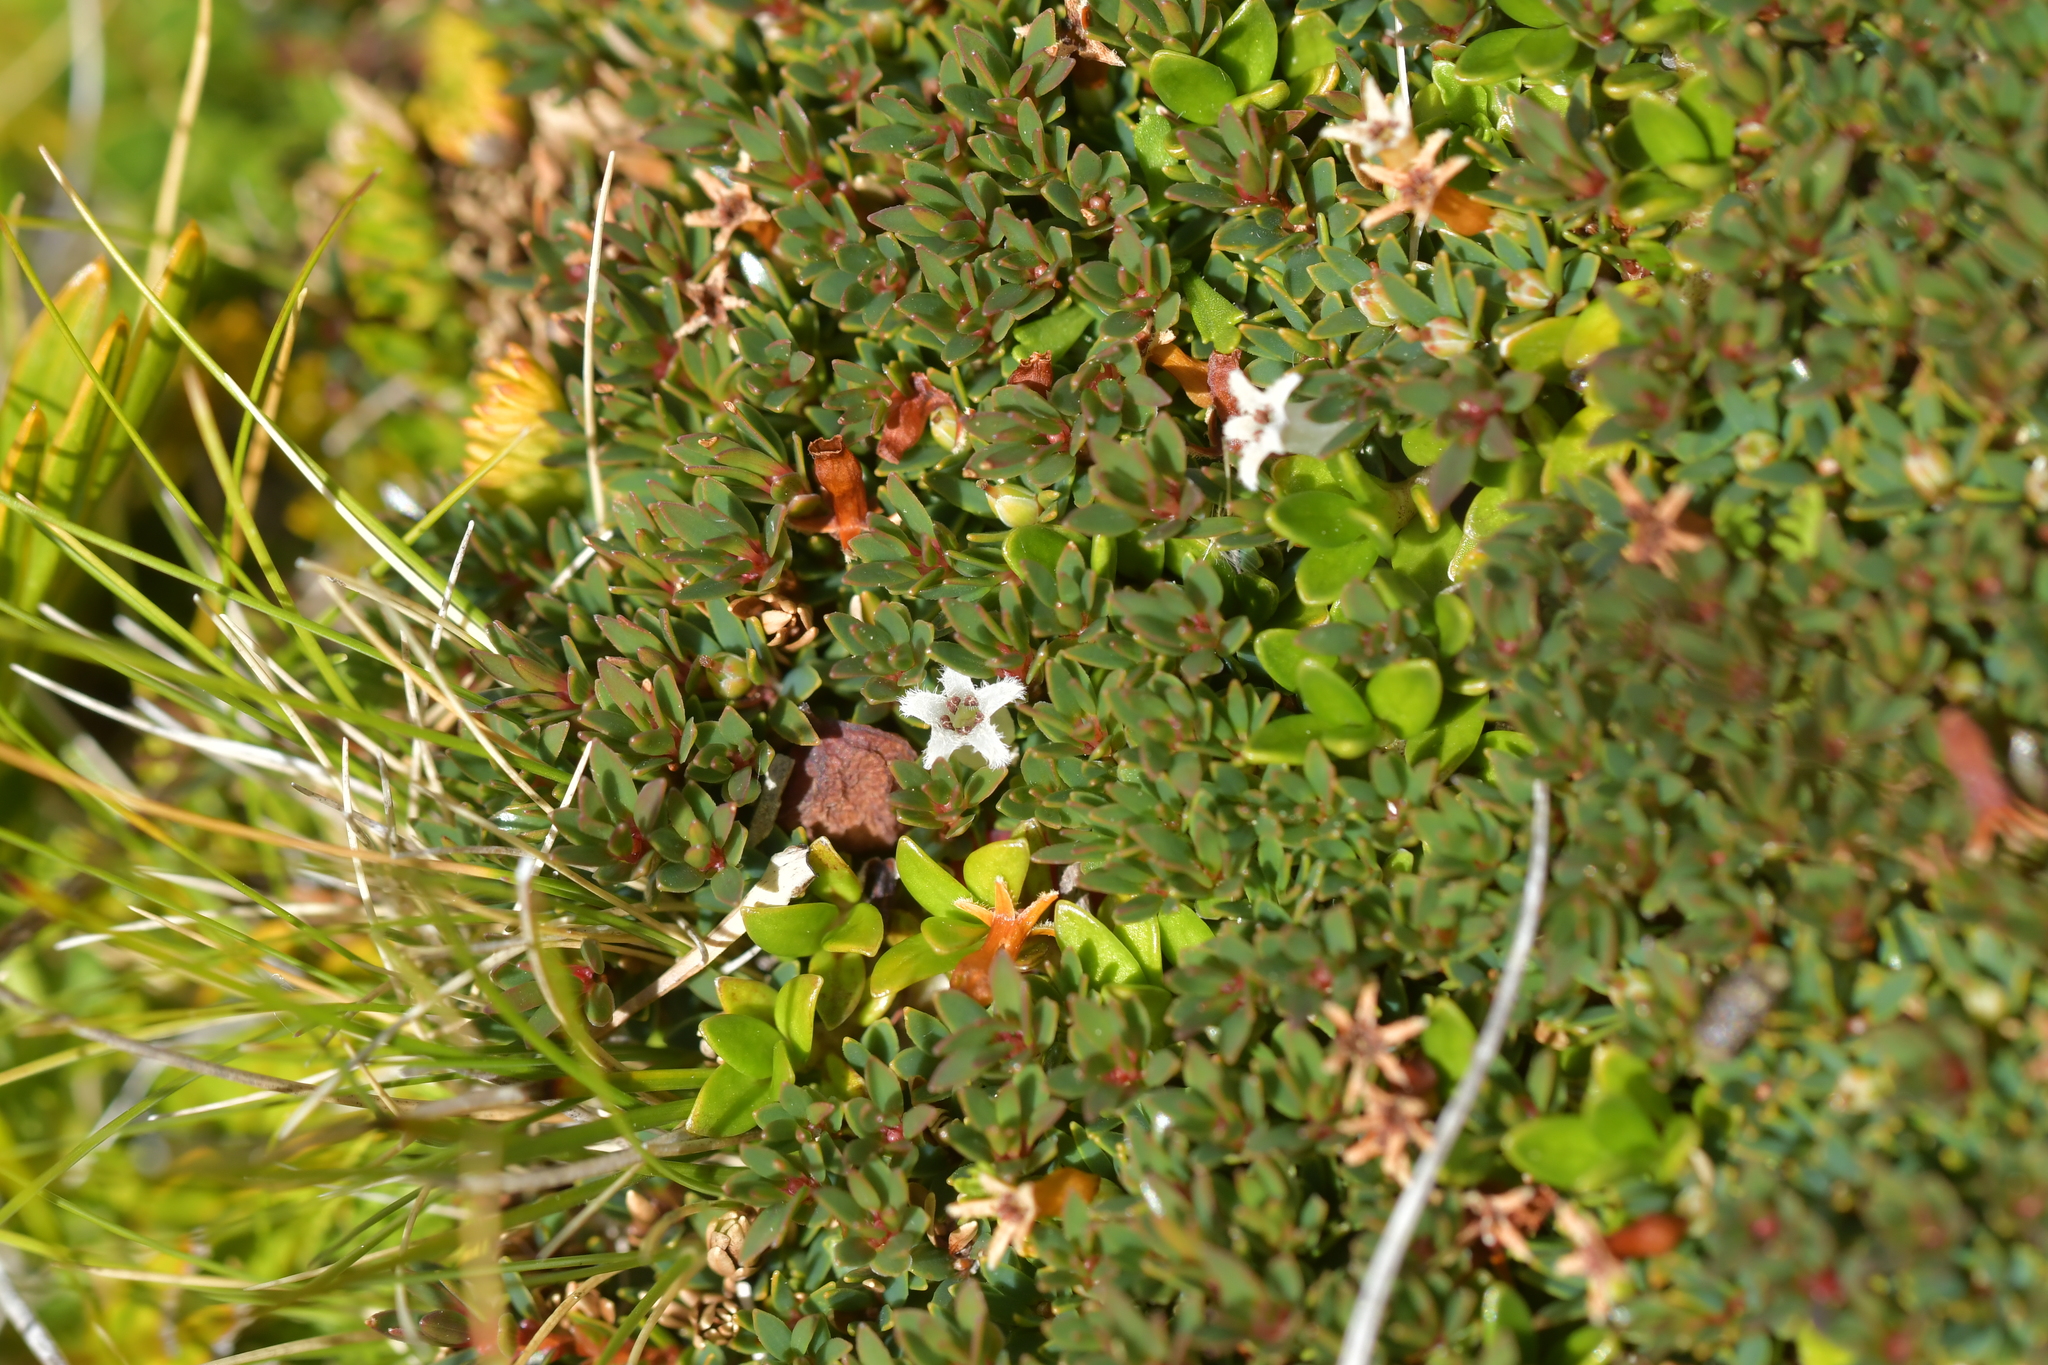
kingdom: Plantae
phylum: Tracheophyta
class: Magnoliopsida
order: Ericales
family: Ericaceae
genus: Pentachondra
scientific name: Pentachondra pumila
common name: Carpet-heath
